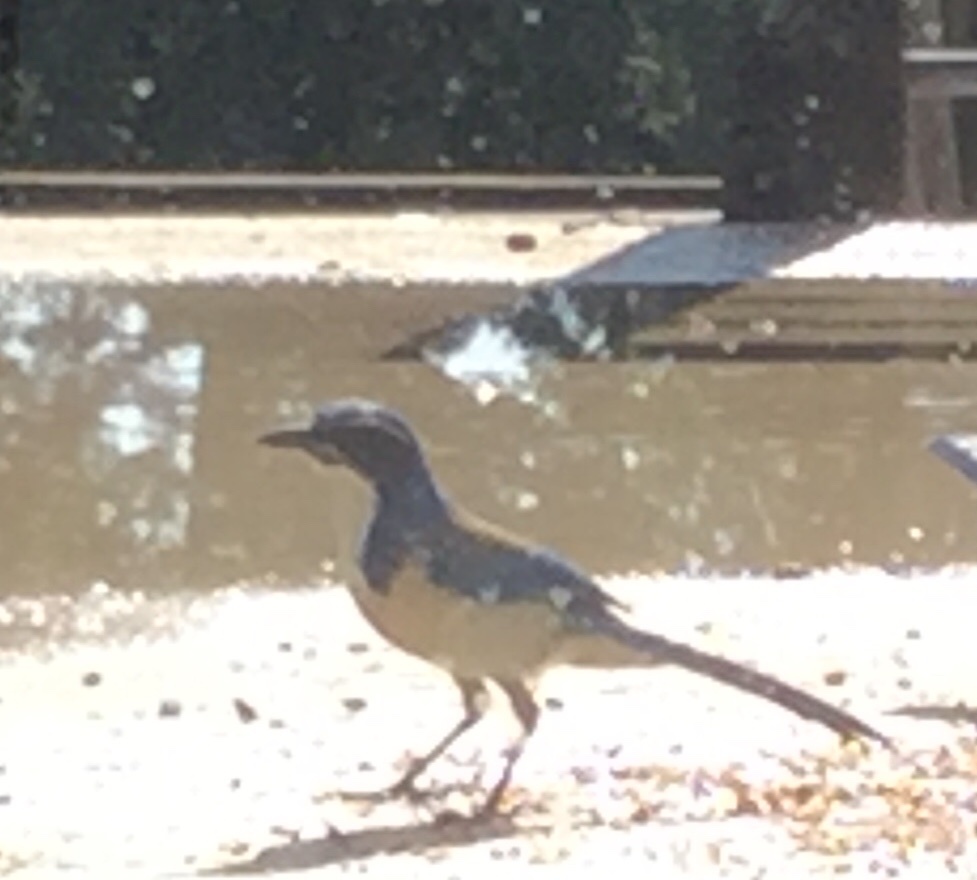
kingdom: Animalia
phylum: Chordata
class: Aves
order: Passeriformes
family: Corvidae
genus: Aphelocoma
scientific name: Aphelocoma californica
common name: California scrub-jay
